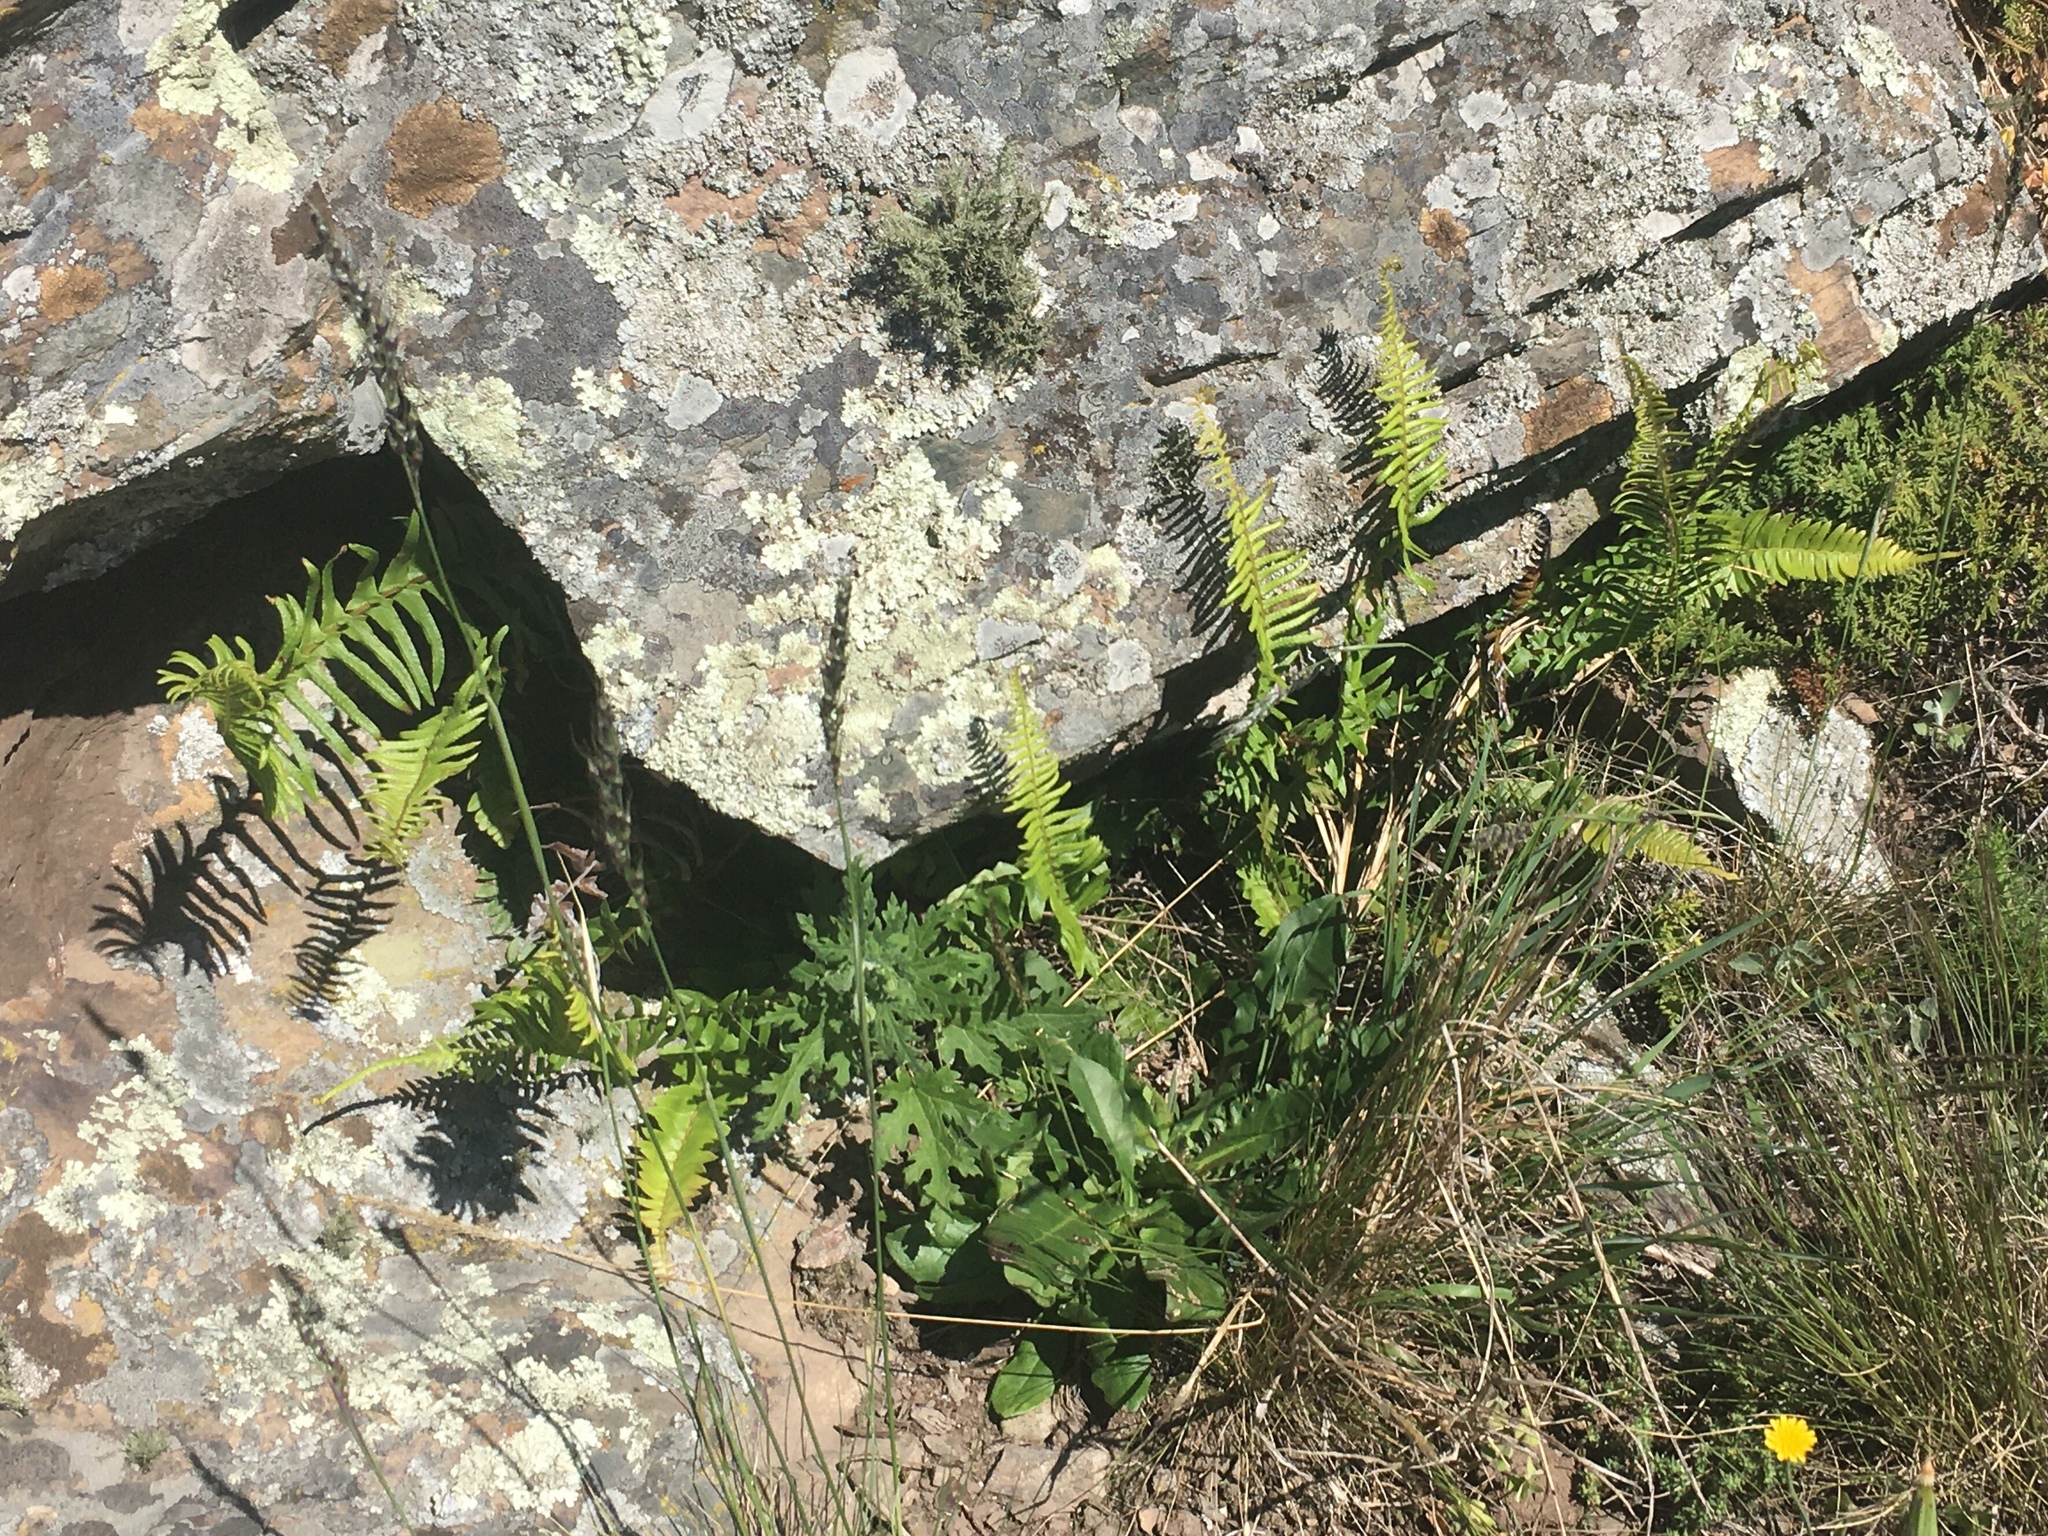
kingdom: Plantae
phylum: Tracheophyta
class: Polypodiopsida
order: Polypodiales
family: Nephrolepidaceae
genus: Nephrolepis
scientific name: Nephrolepis cordifolia
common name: Narrow swordfern
